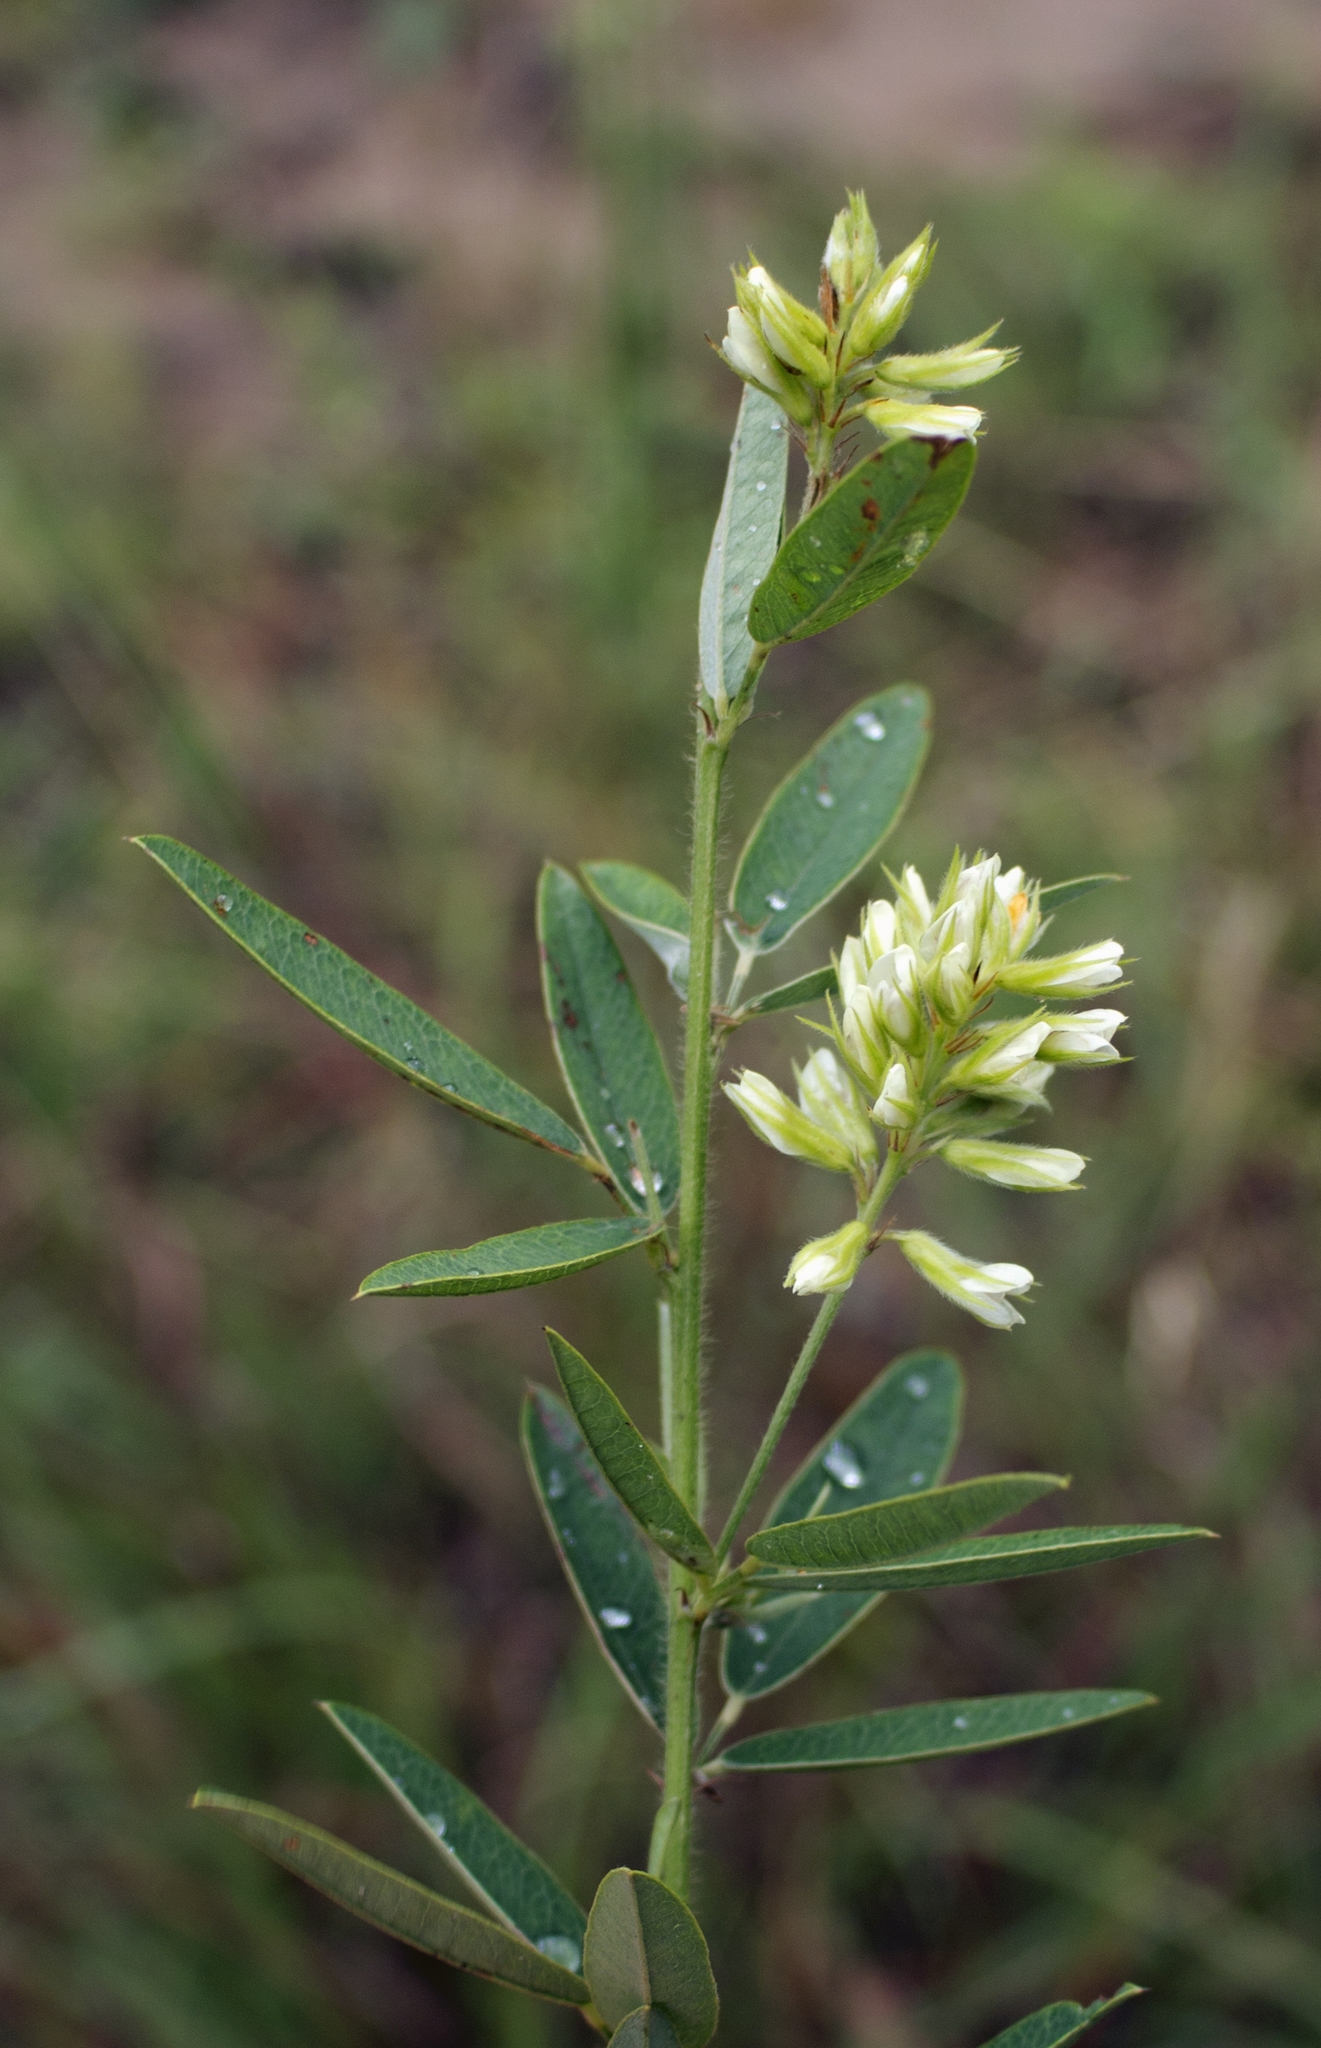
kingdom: Plantae
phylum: Tracheophyta
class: Magnoliopsida
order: Fabales
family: Fabaceae
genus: Lespedeza
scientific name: Lespedeza capitata
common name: Dusty clover
